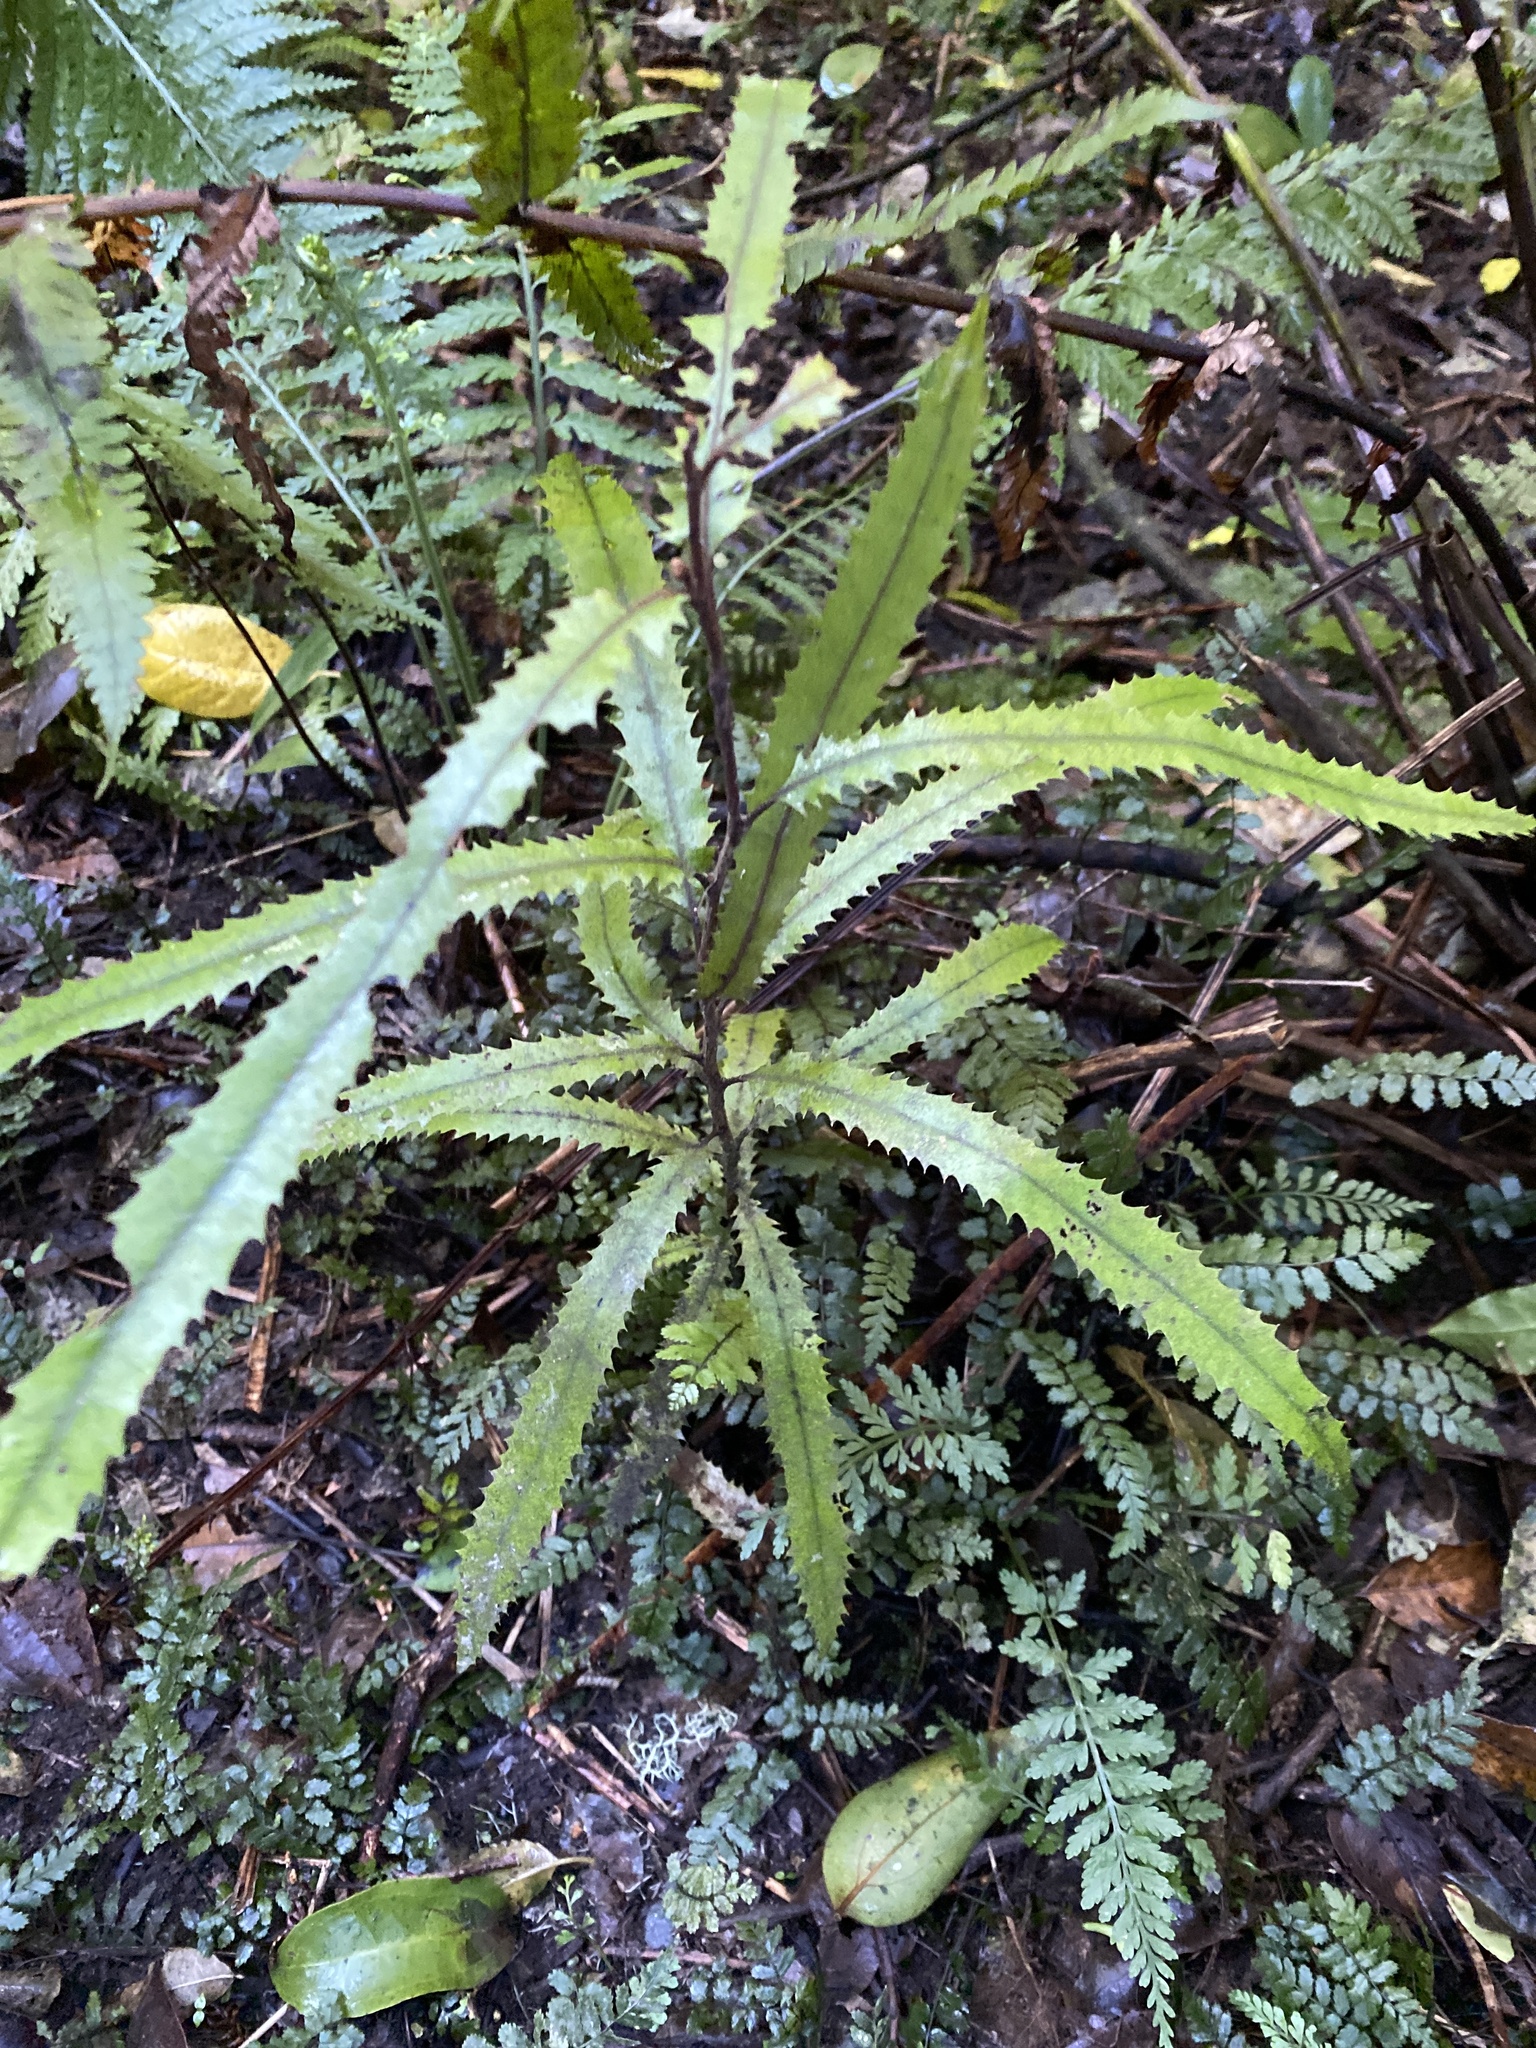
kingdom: Plantae
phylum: Tracheophyta
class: Magnoliopsida
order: Proteales
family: Proteaceae
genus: Knightia
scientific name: Knightia excelsa
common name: New zealand-honeysuckle
